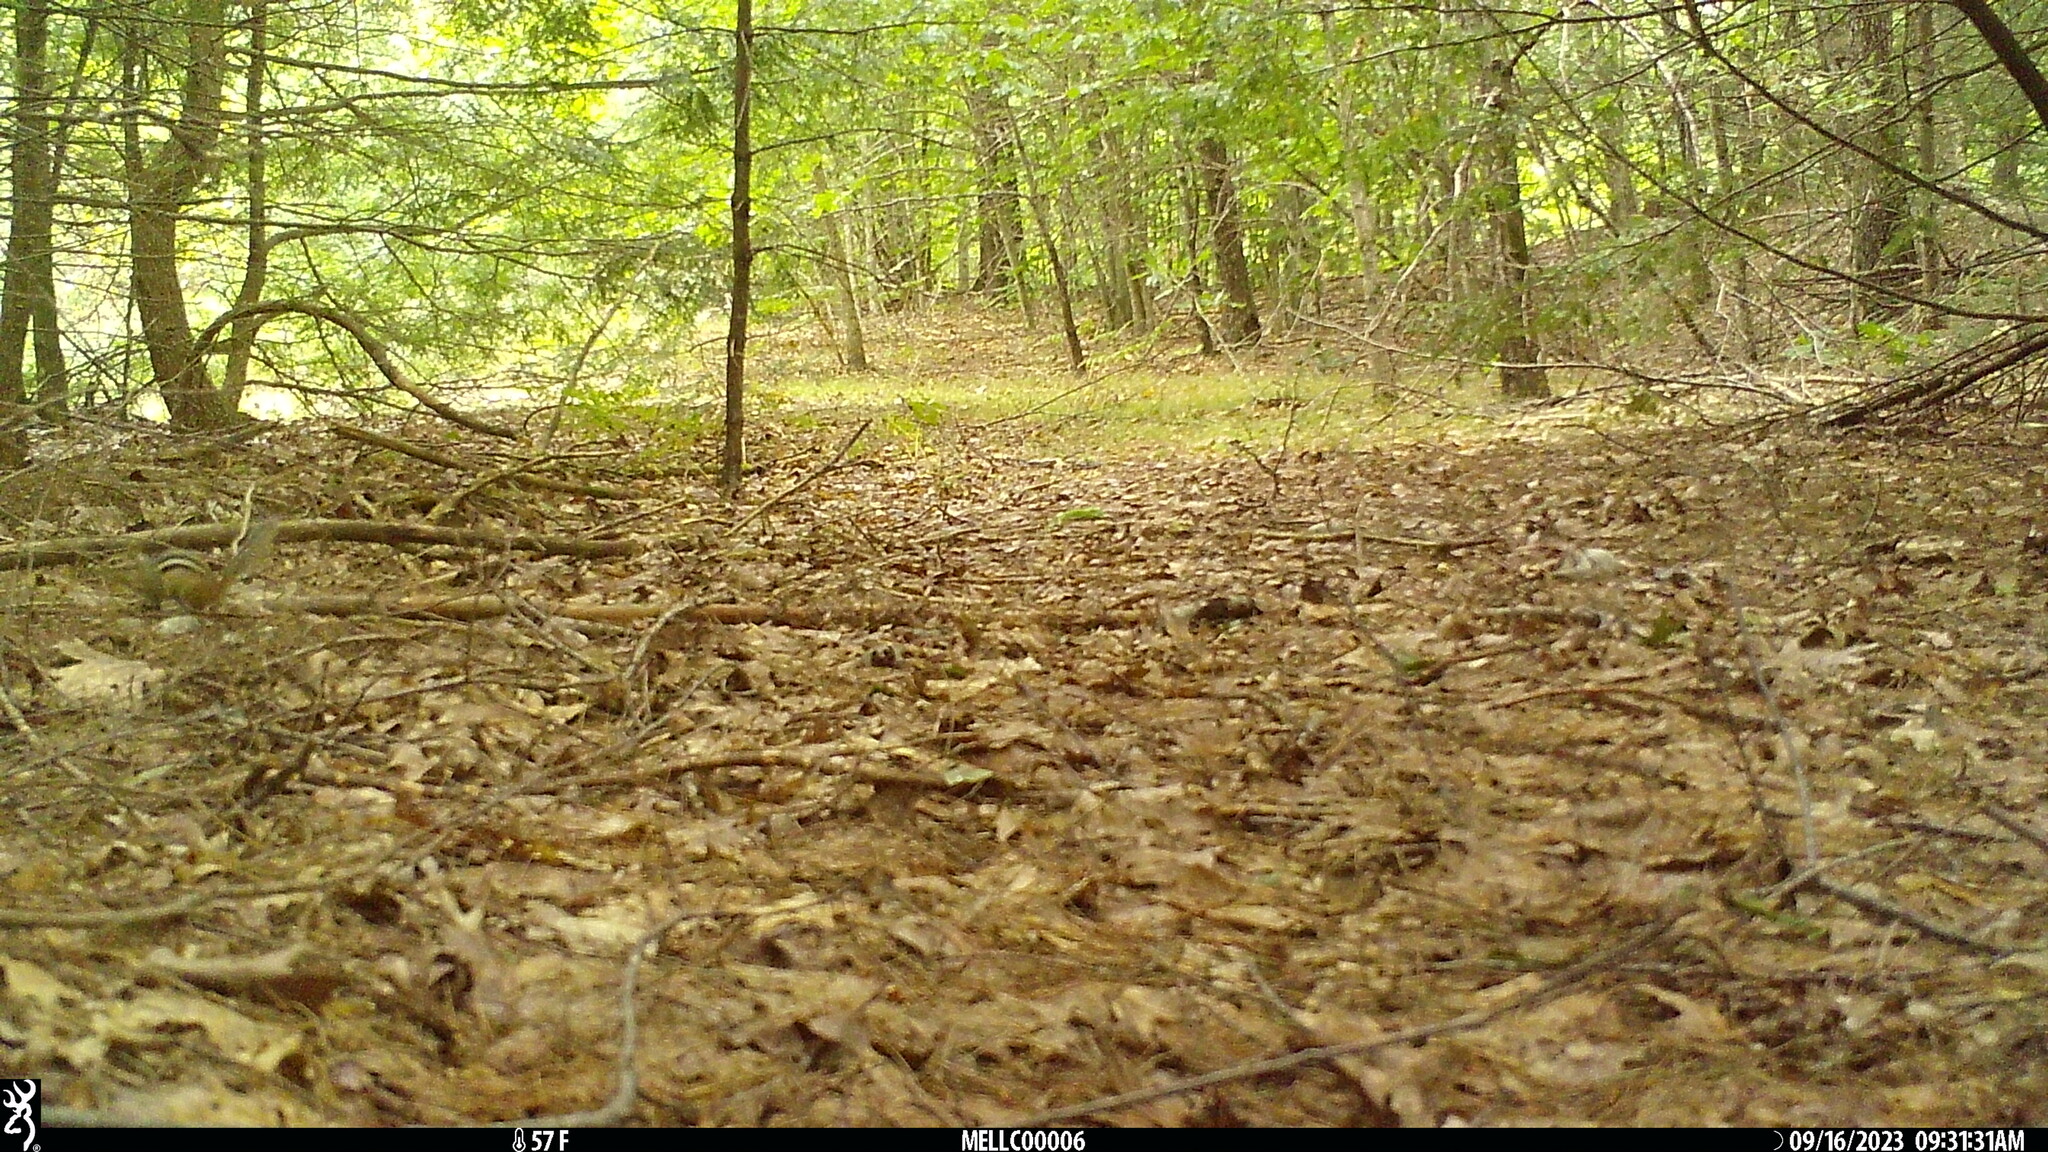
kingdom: Animalia
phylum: Chordata
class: Mammalia
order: Rodentia
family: Sciuridae
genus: Tamias
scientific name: Tamias striatus
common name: Eastern chipmunk
